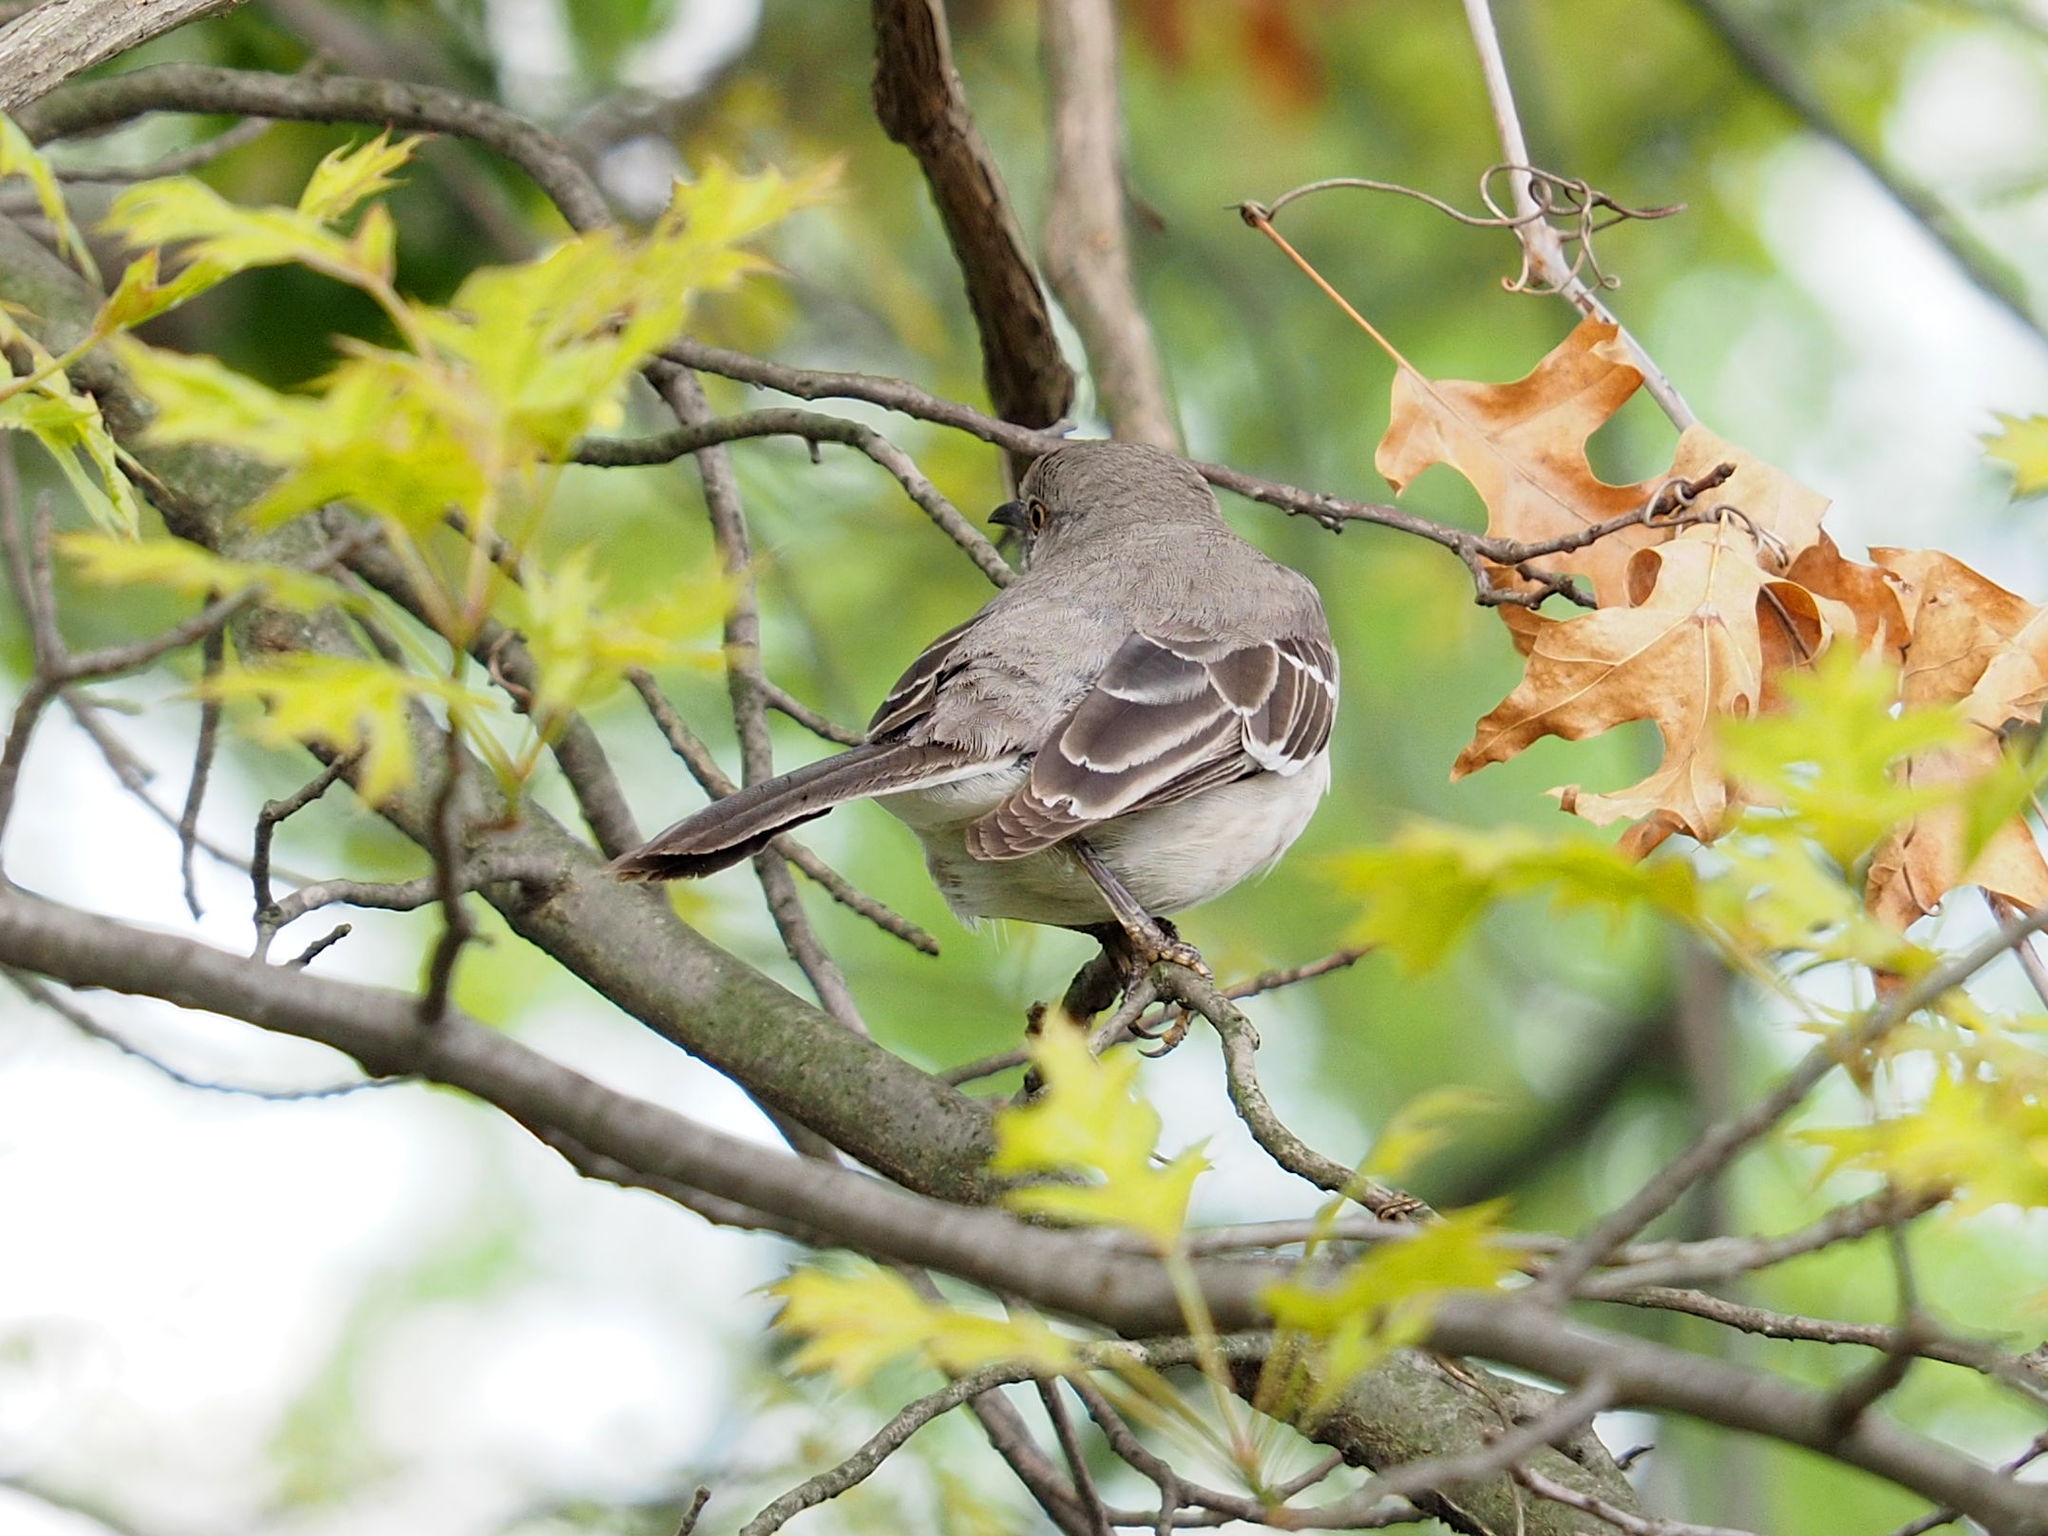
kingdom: Animalia
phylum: Chordata
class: Aves
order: Passeriformes
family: Mimidae
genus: Mimus
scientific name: Mimus polyglottos
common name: Northern mockingbird
